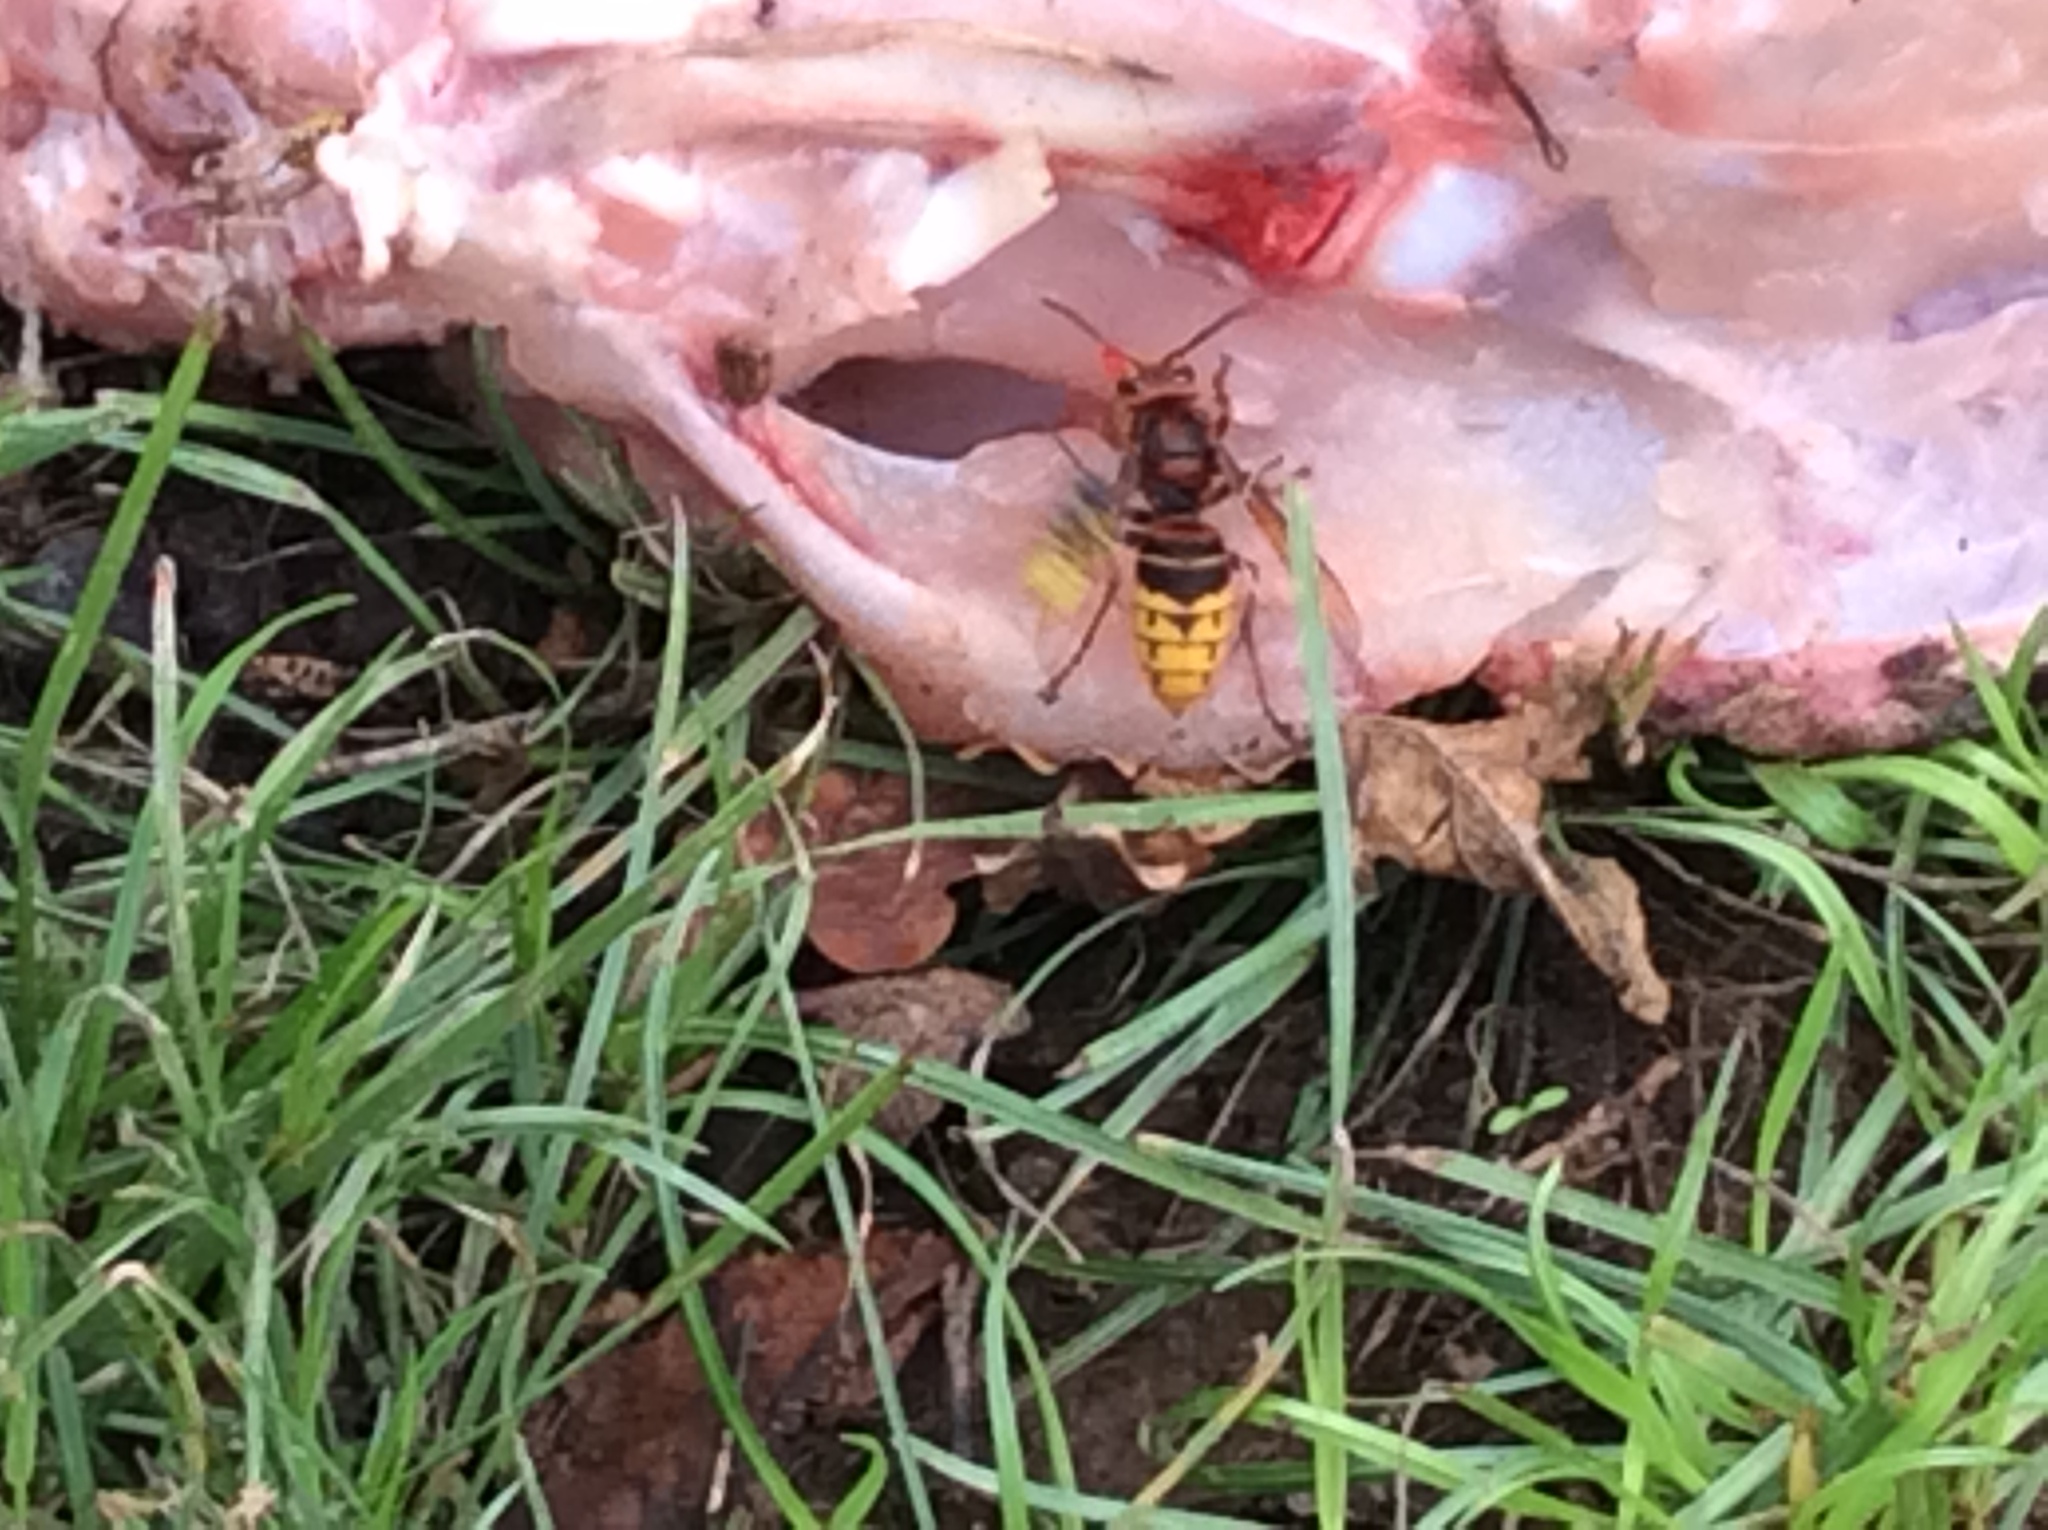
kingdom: Animalia
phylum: Arthropoda
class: Insecta
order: Hymenoptera
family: Vespidae
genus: Vespa
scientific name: Vespa crabro
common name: Hornet
